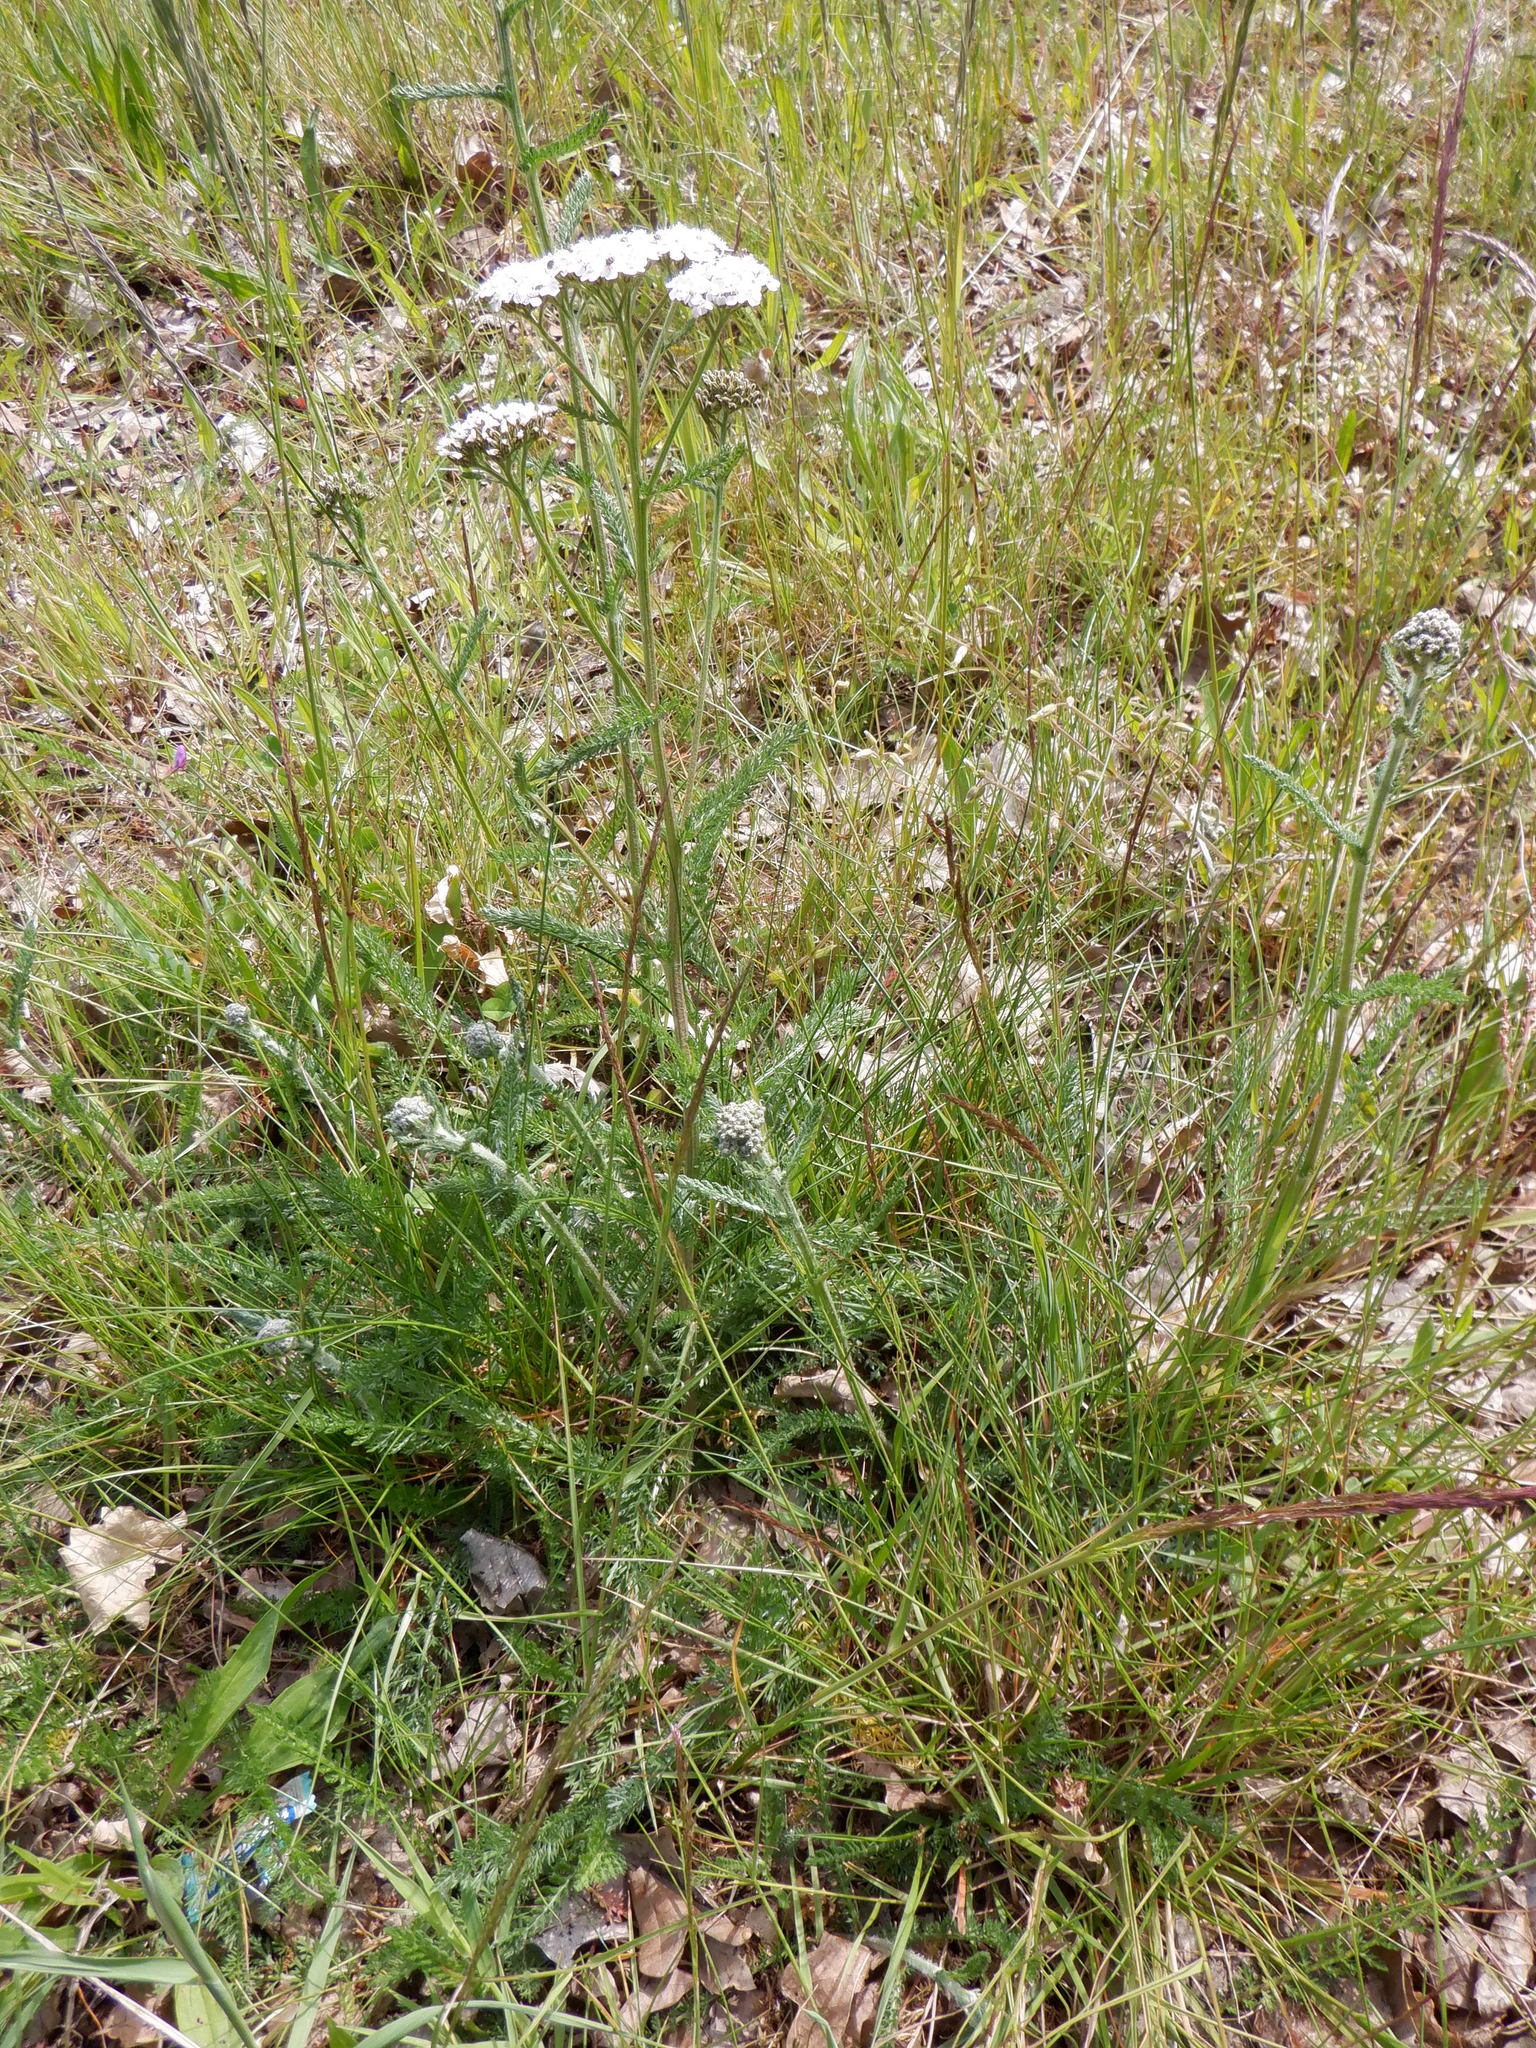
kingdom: Plantae
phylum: Tracheophyta
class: Magnoliopsida
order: Asterales
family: Asteraceae
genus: Achillea
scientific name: Achillea millefolium
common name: Yarrow
